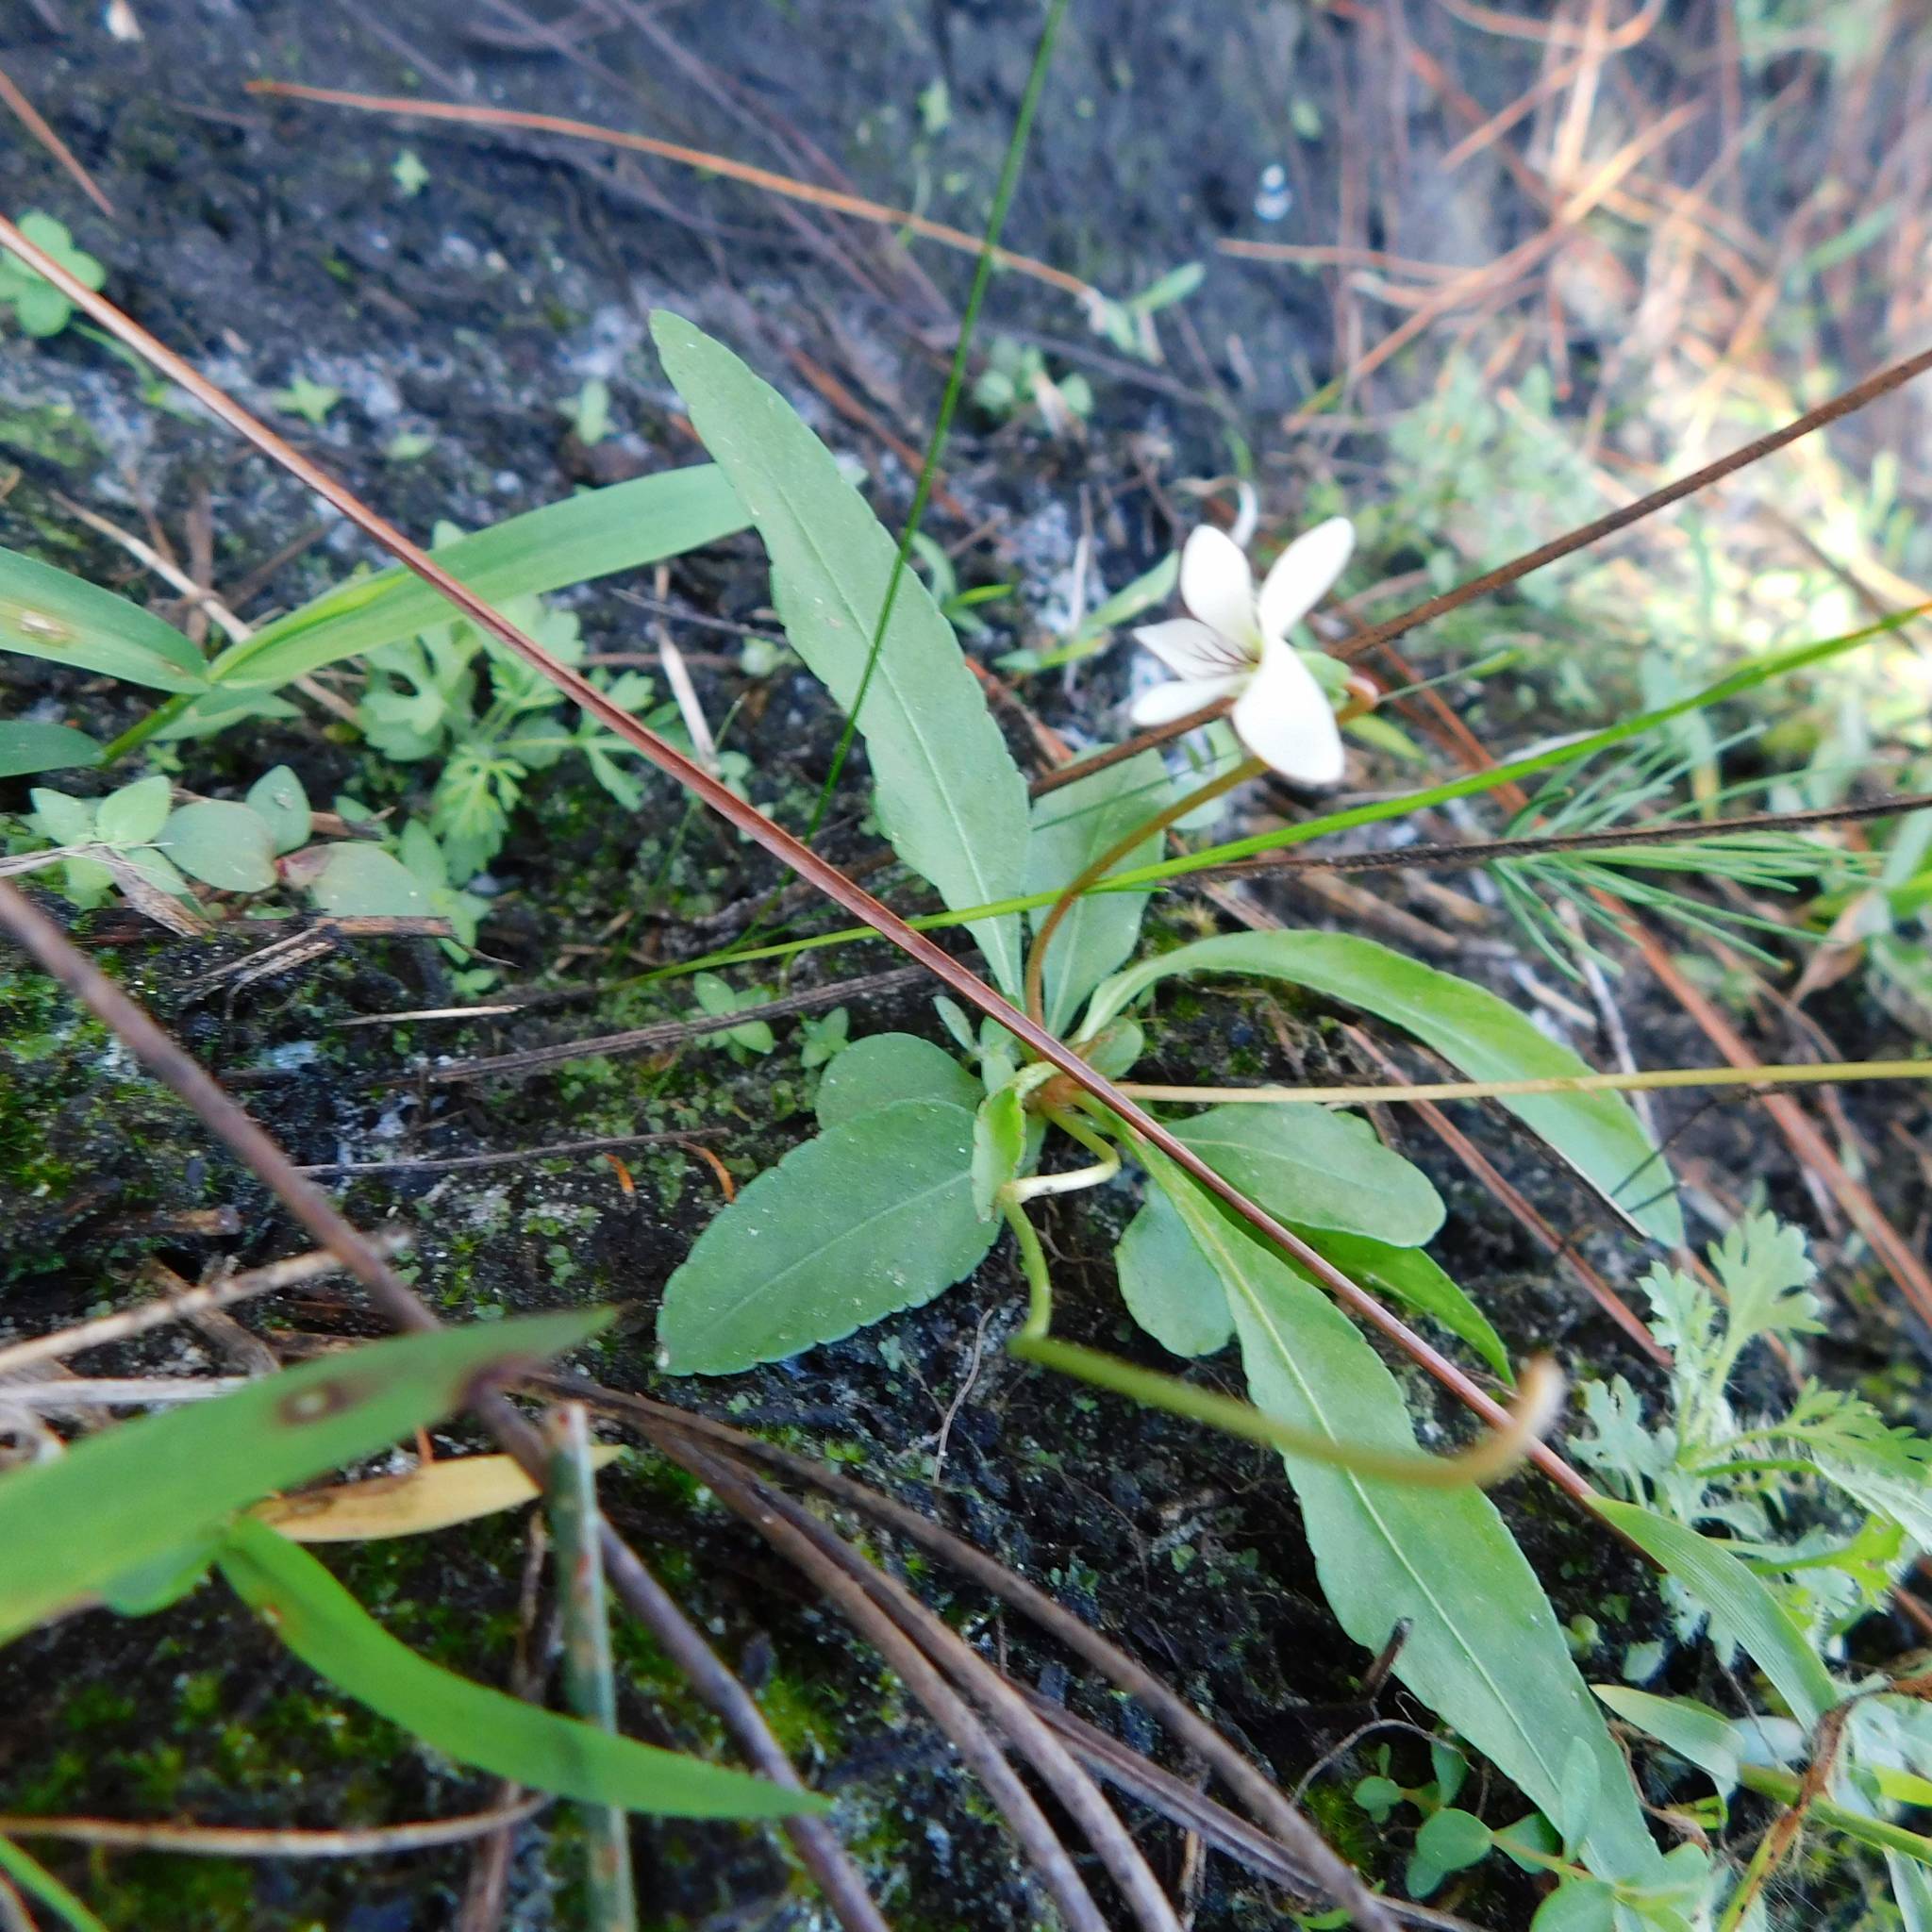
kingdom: Plantae
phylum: Tracheophyta
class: Magnoliopsida
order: Malpighiales
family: Violaceae
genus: Viola
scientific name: Viola lanceolata
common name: Bog white violet
